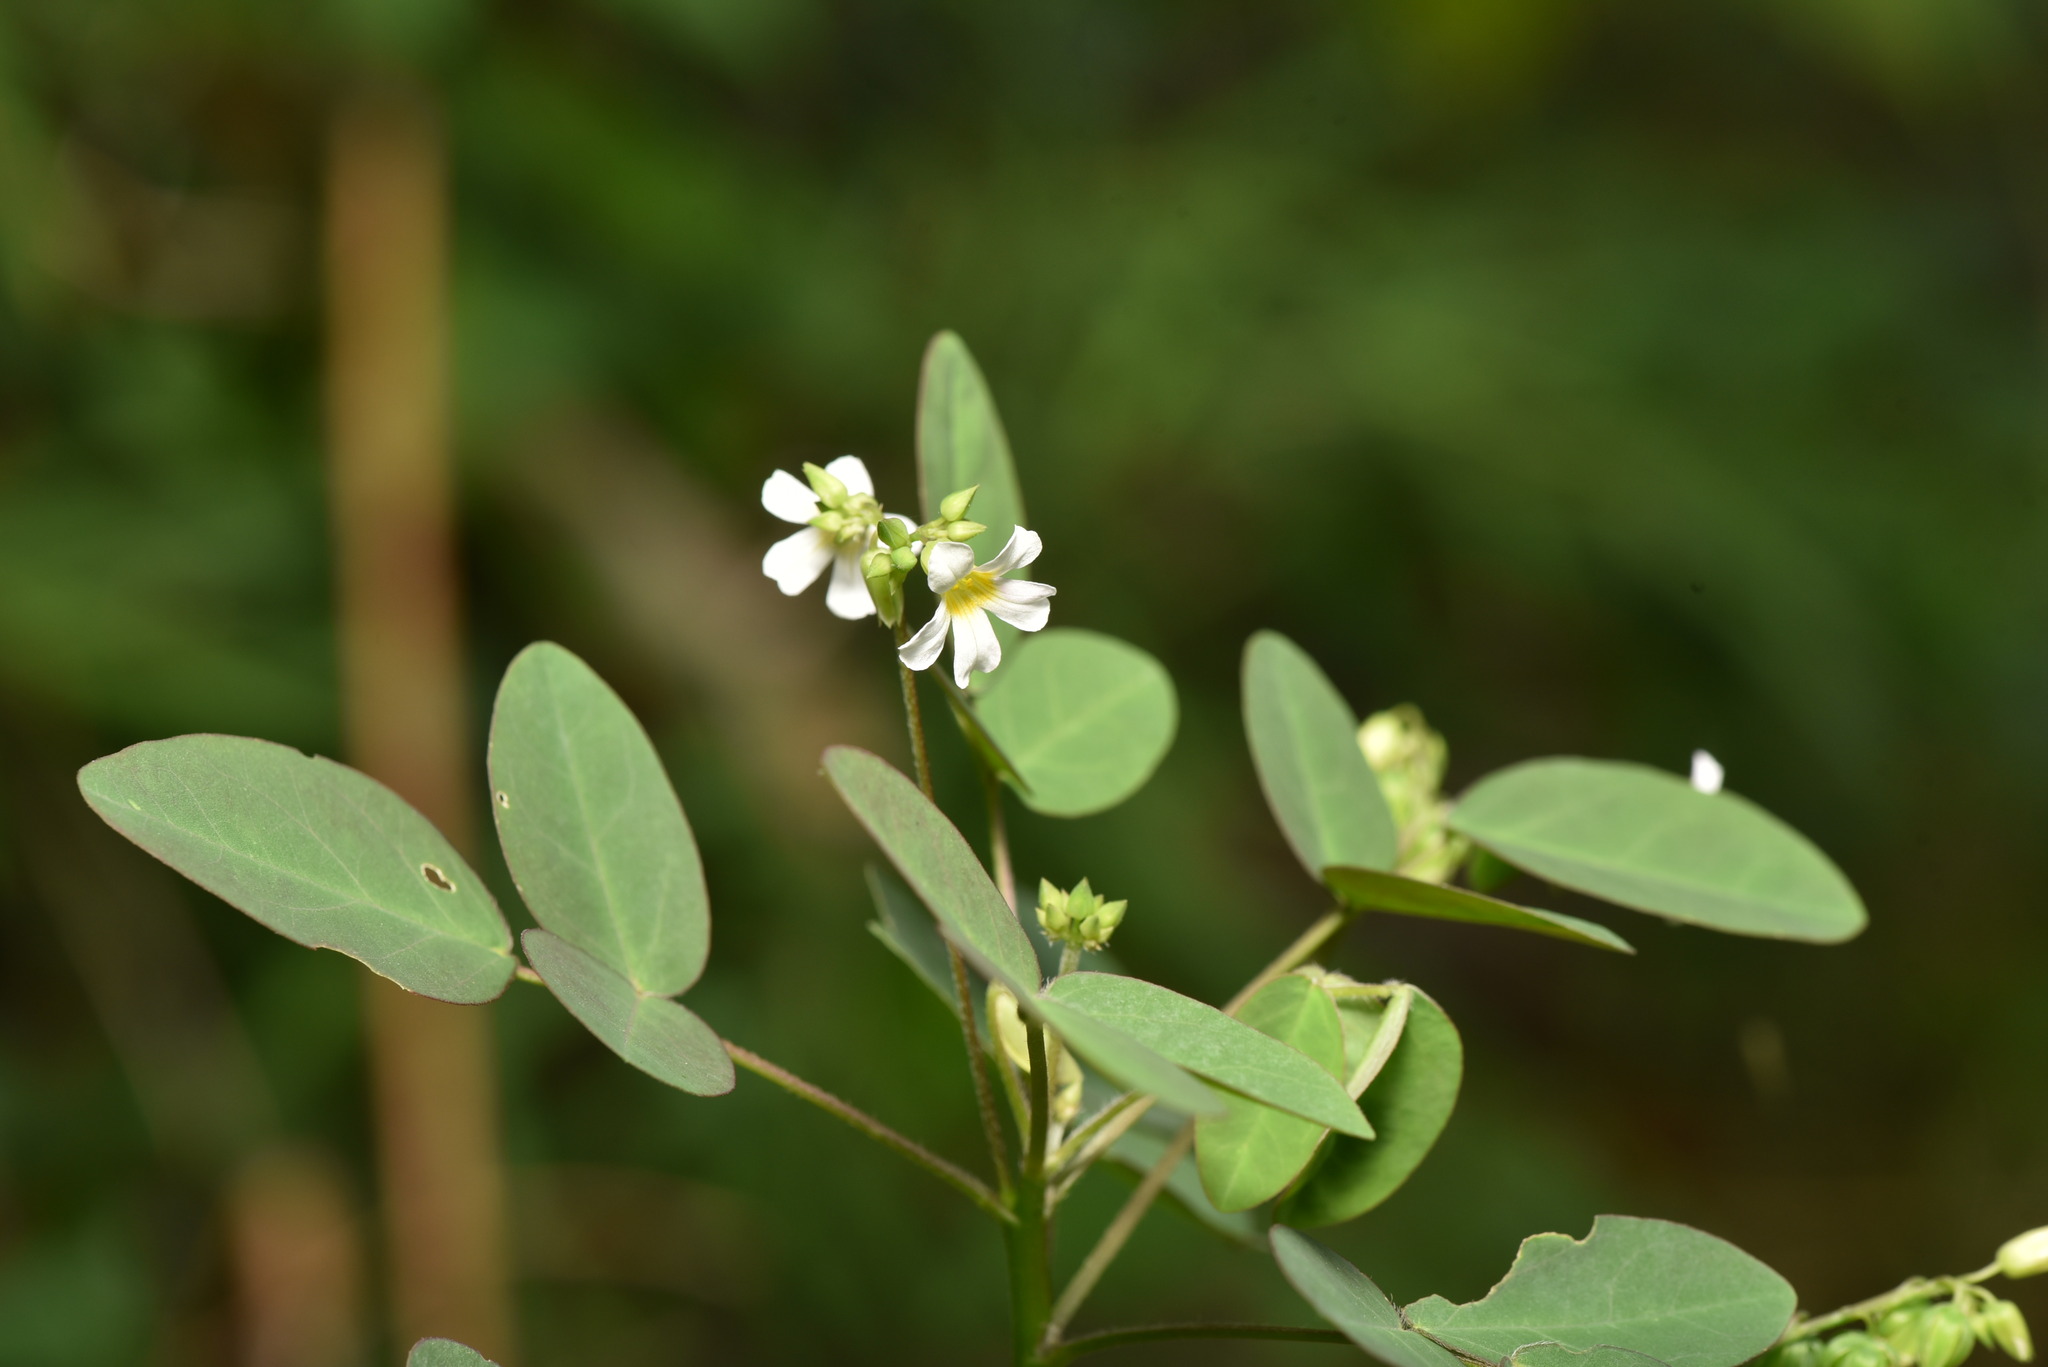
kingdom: Plantae
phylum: Tracheophyta
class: Magnoliopsida
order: Oxalidales
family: Oxalidaceae
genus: Oxalis
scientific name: Oxalis barrelieri
